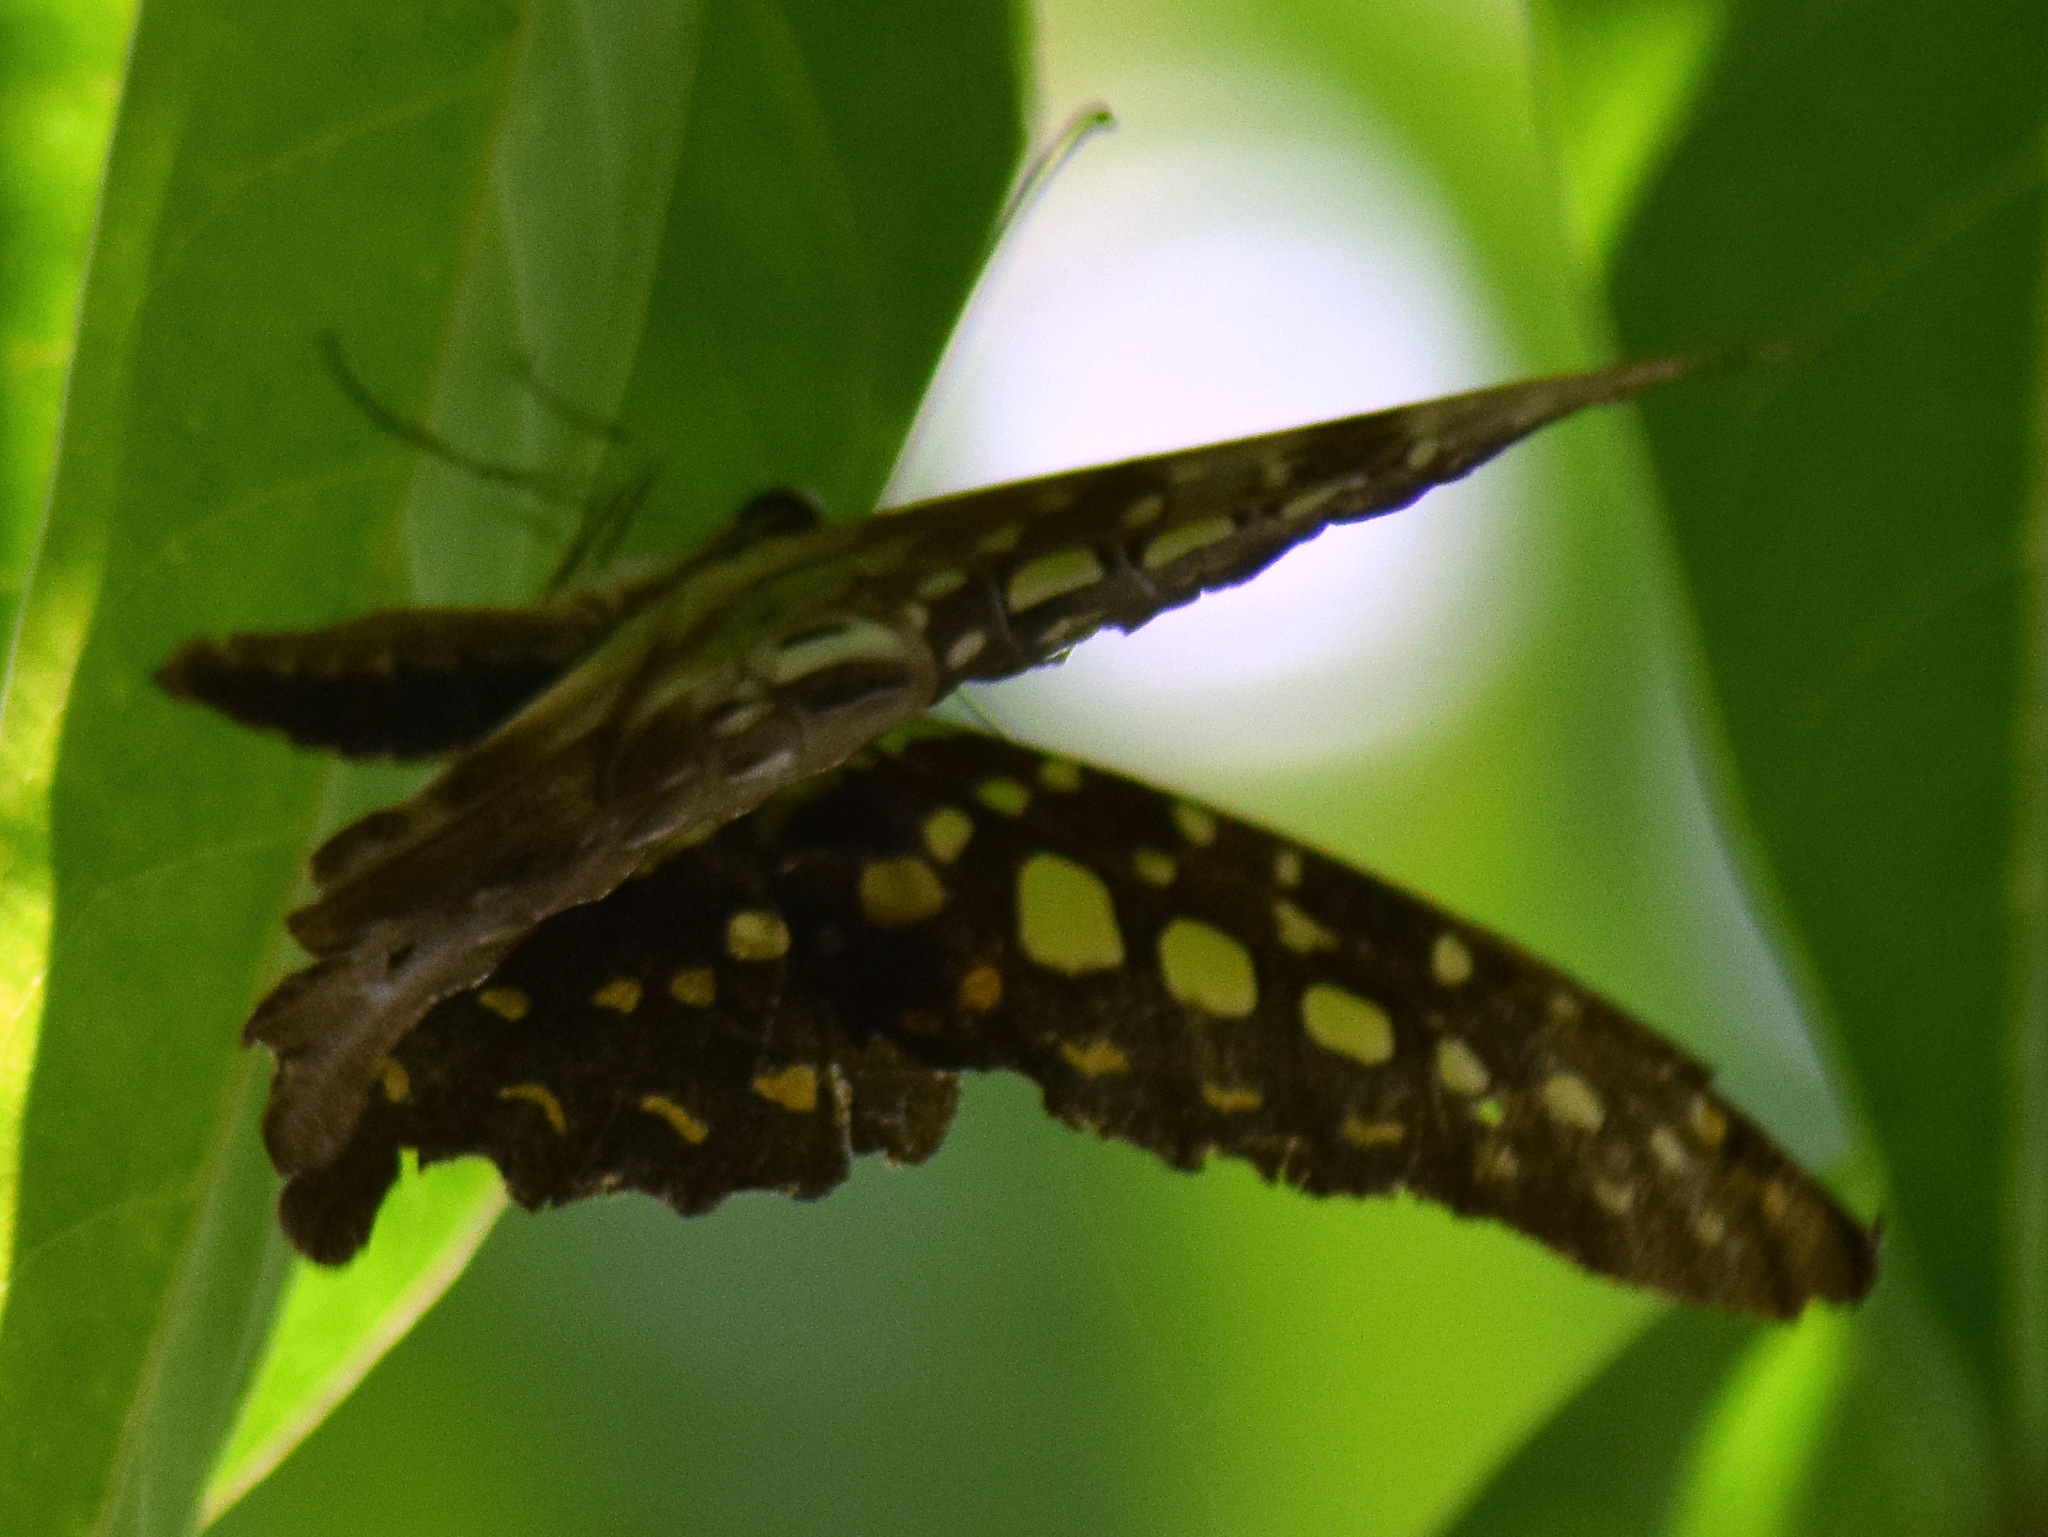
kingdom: Animalia
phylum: Arthropoda
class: Insecta
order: Lepidoptera
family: Papilionidae
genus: Graphium
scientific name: Graphium agamemnon
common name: Tailed jay
